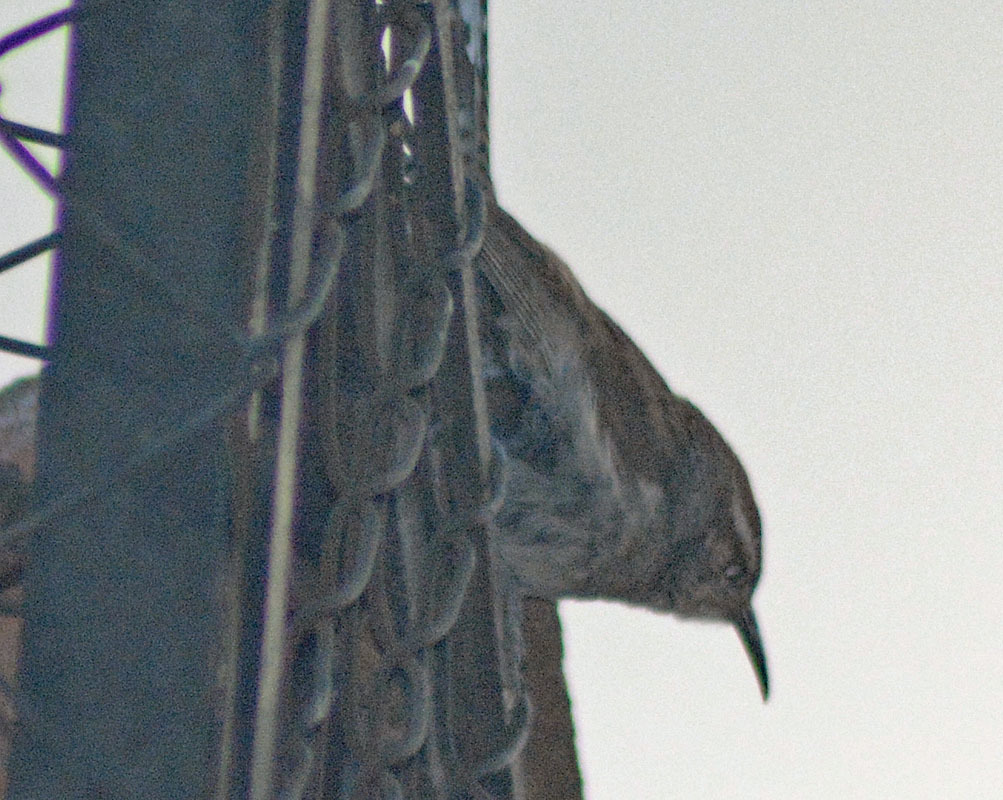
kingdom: Animalia
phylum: Chordata
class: Aves
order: Passeriformes
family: Troglodytidae
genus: Thryomanes
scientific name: Thryomanes bewickii
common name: Bewick's wren
